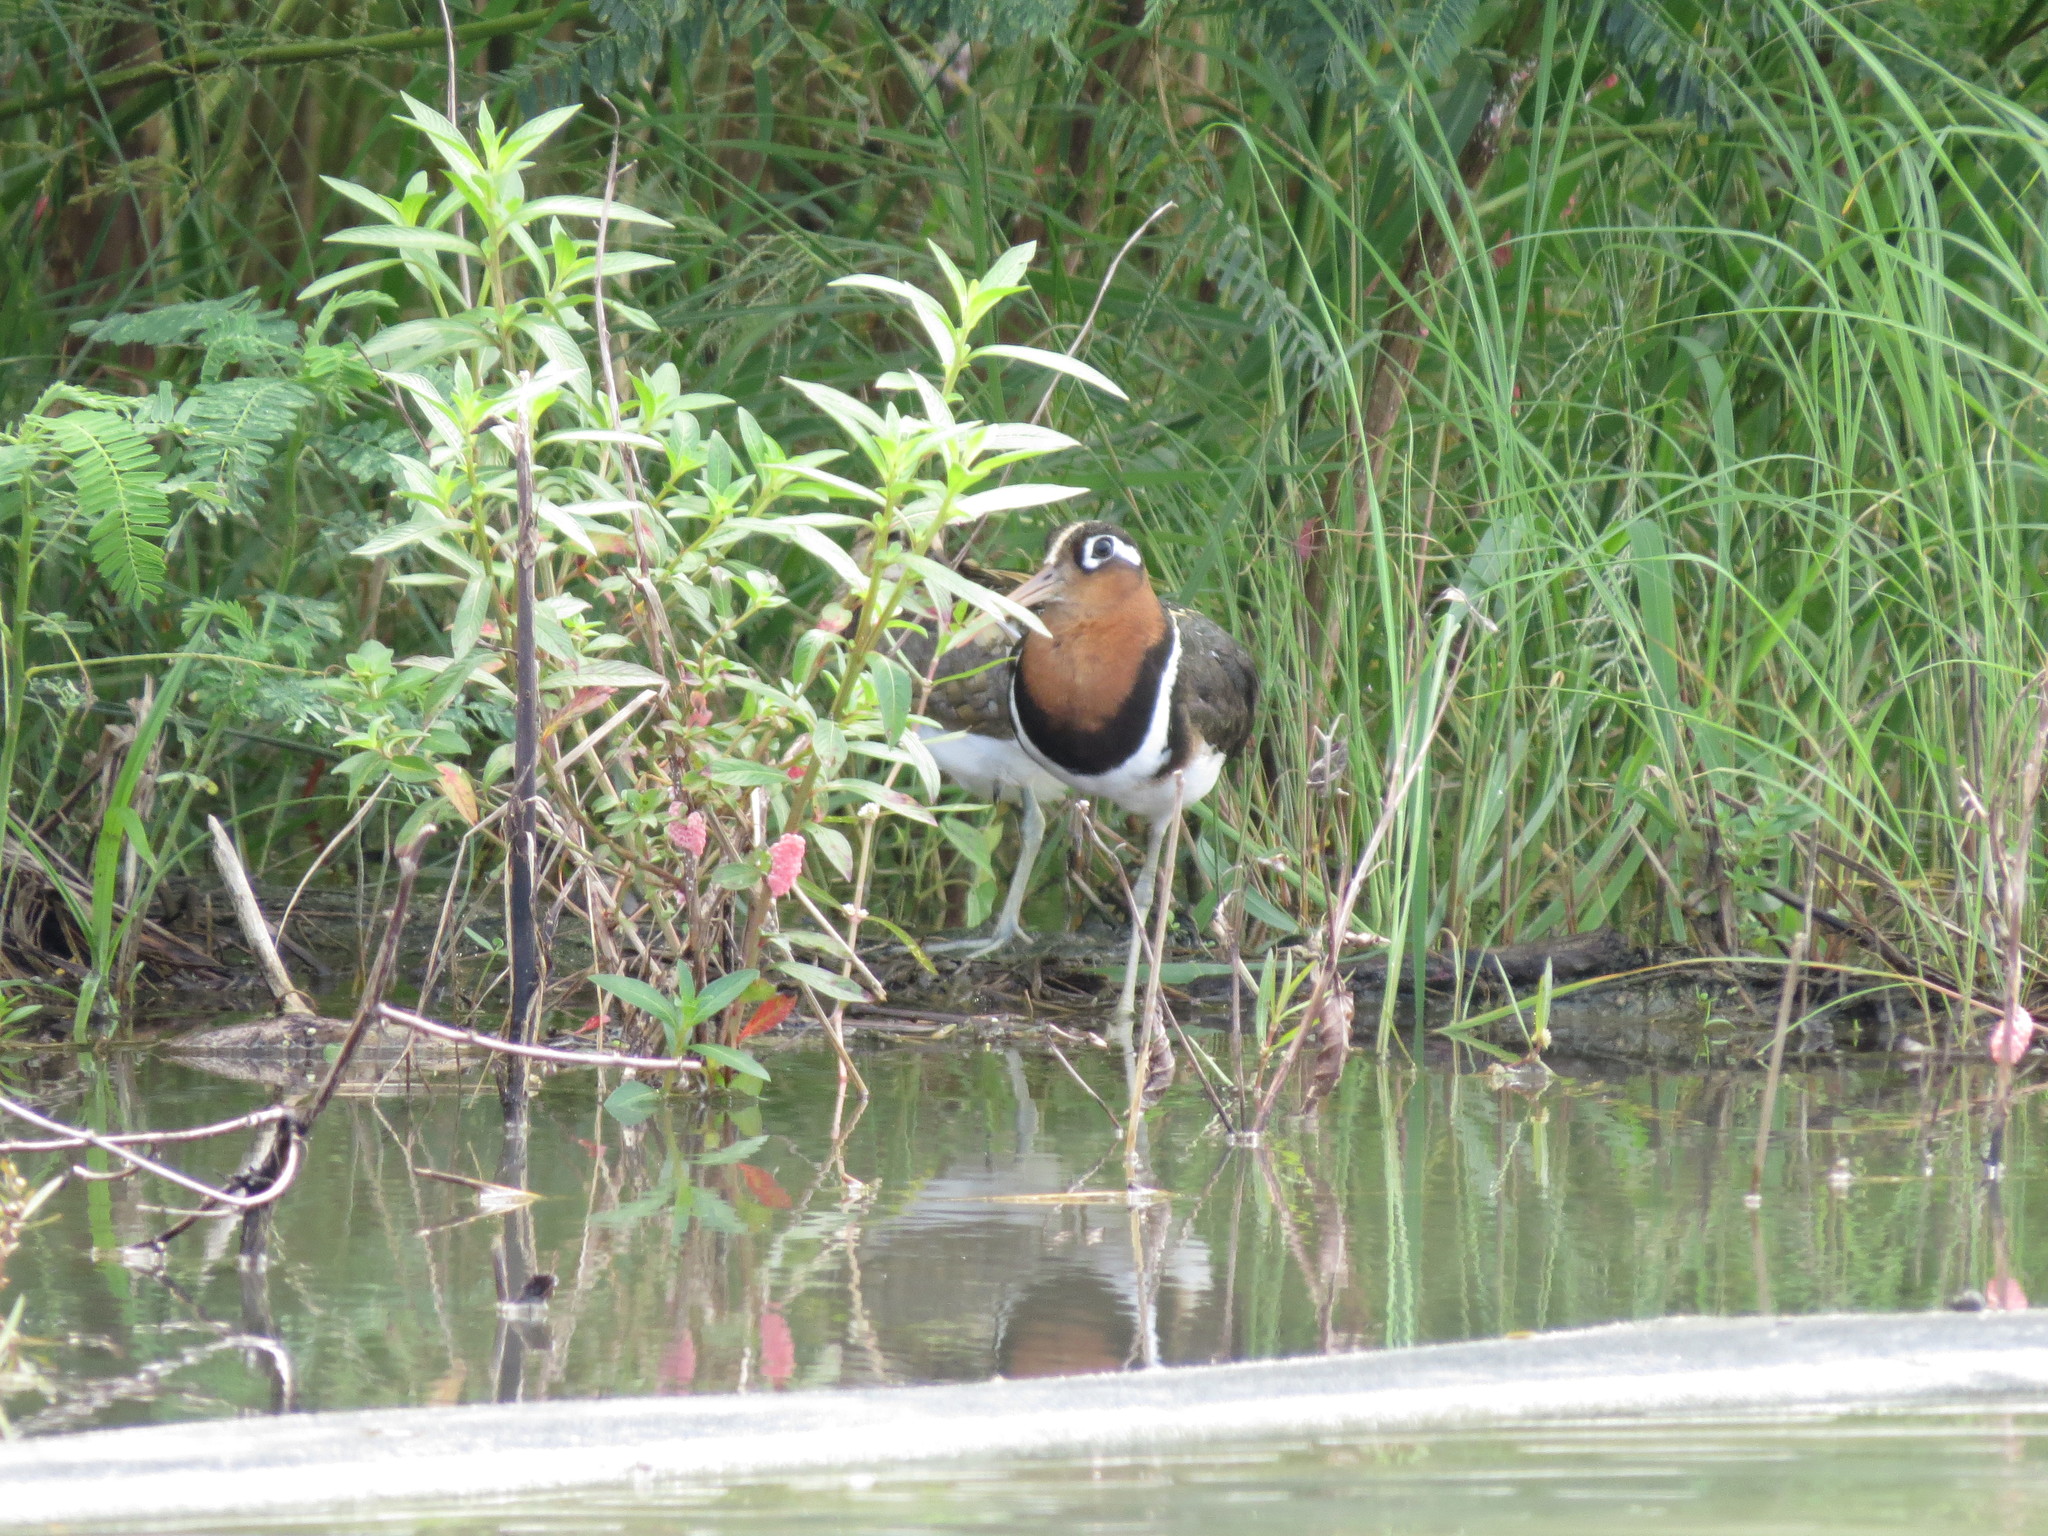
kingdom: Animalia
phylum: Chordata
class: Aves
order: Charadriiformes
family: Rostratulidae
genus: Rostratula
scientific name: Rostratula benghalensis
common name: Greater painted-snipe
